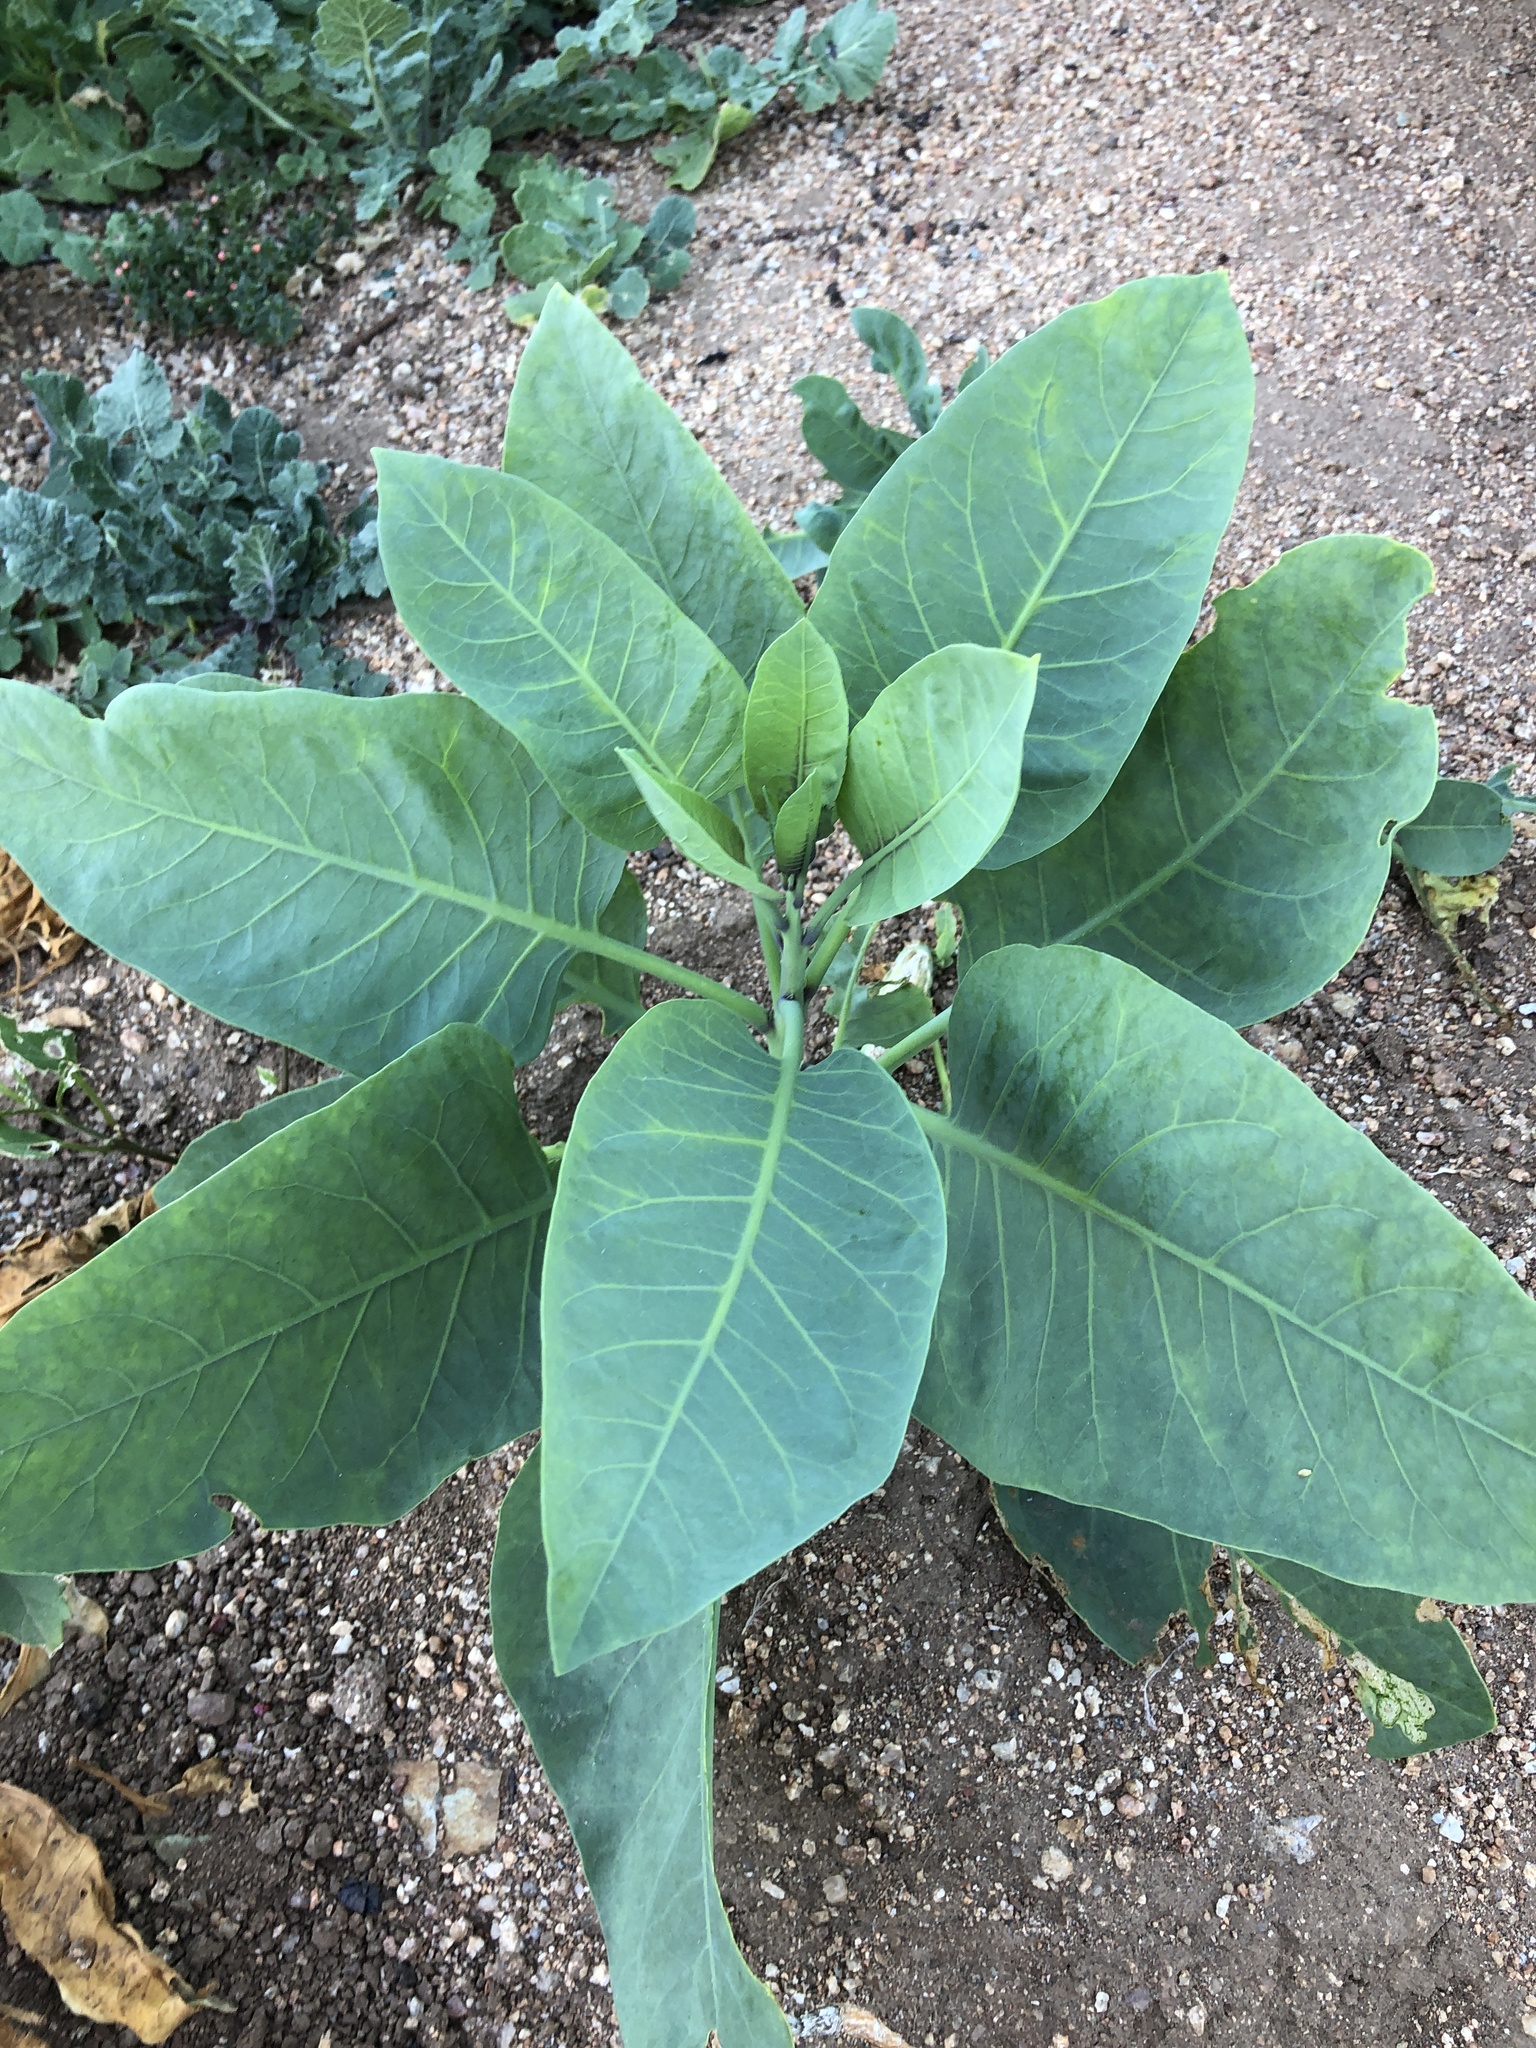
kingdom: Plantae
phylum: Tracheophyta
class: Magnoliopsida
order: Solanales
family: Solanaceae
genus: Nicotiana
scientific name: Nicotiana glauca
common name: Tree tobacco
